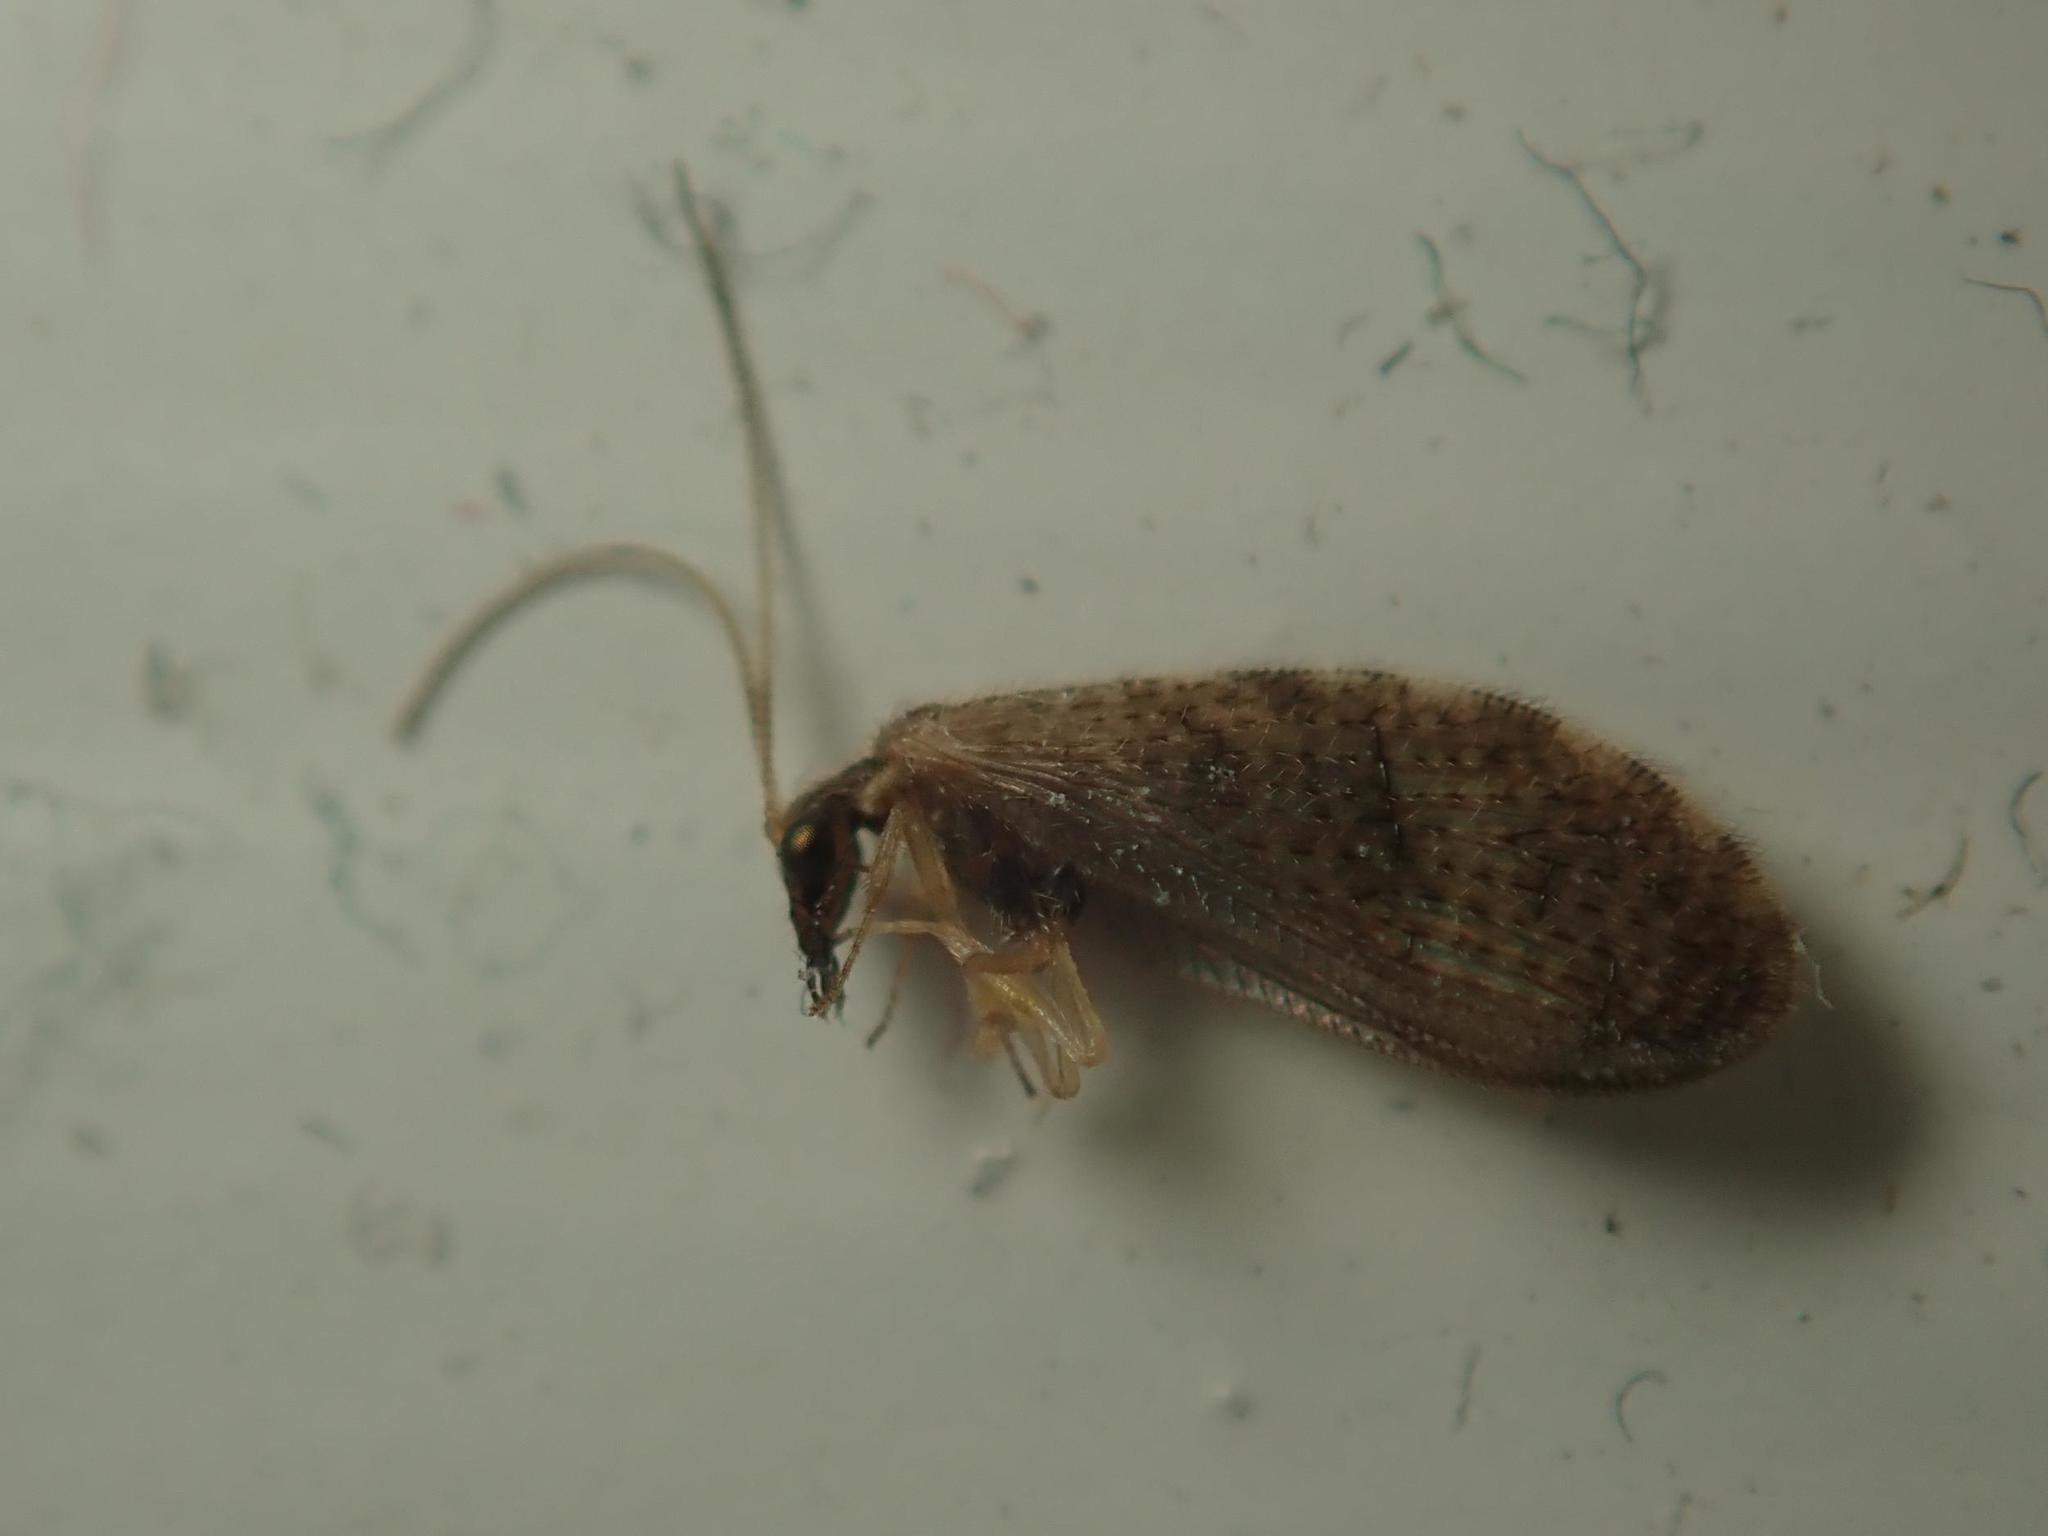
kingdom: Animalia
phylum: Arthropoda
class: Insecta
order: Neuroptera
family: Hemerobiidae
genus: Sympherobius
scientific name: Sympherobius pygmaeus
